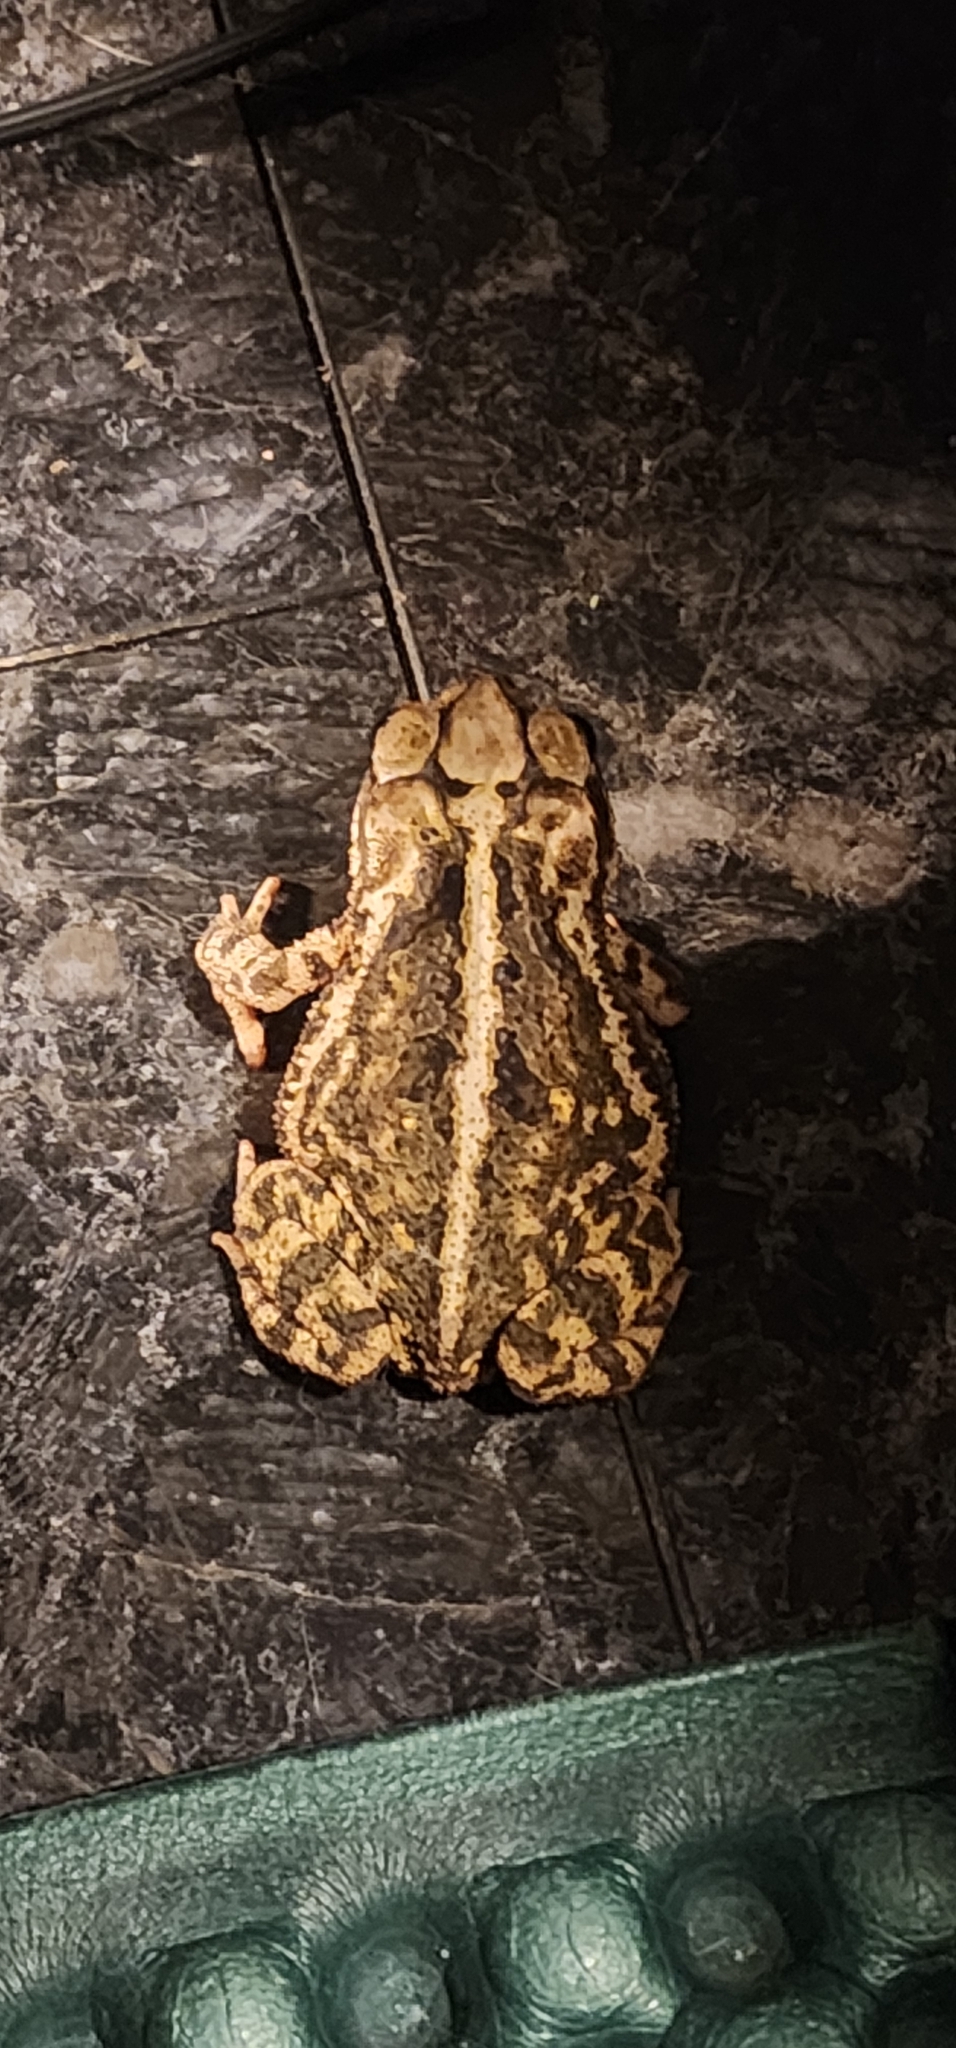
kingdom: Animalia
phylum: Chordata
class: Amphibia
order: Anura
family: Bufonidae
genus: Incilius
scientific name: Incilius nebulifer
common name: Gulf coast toad
